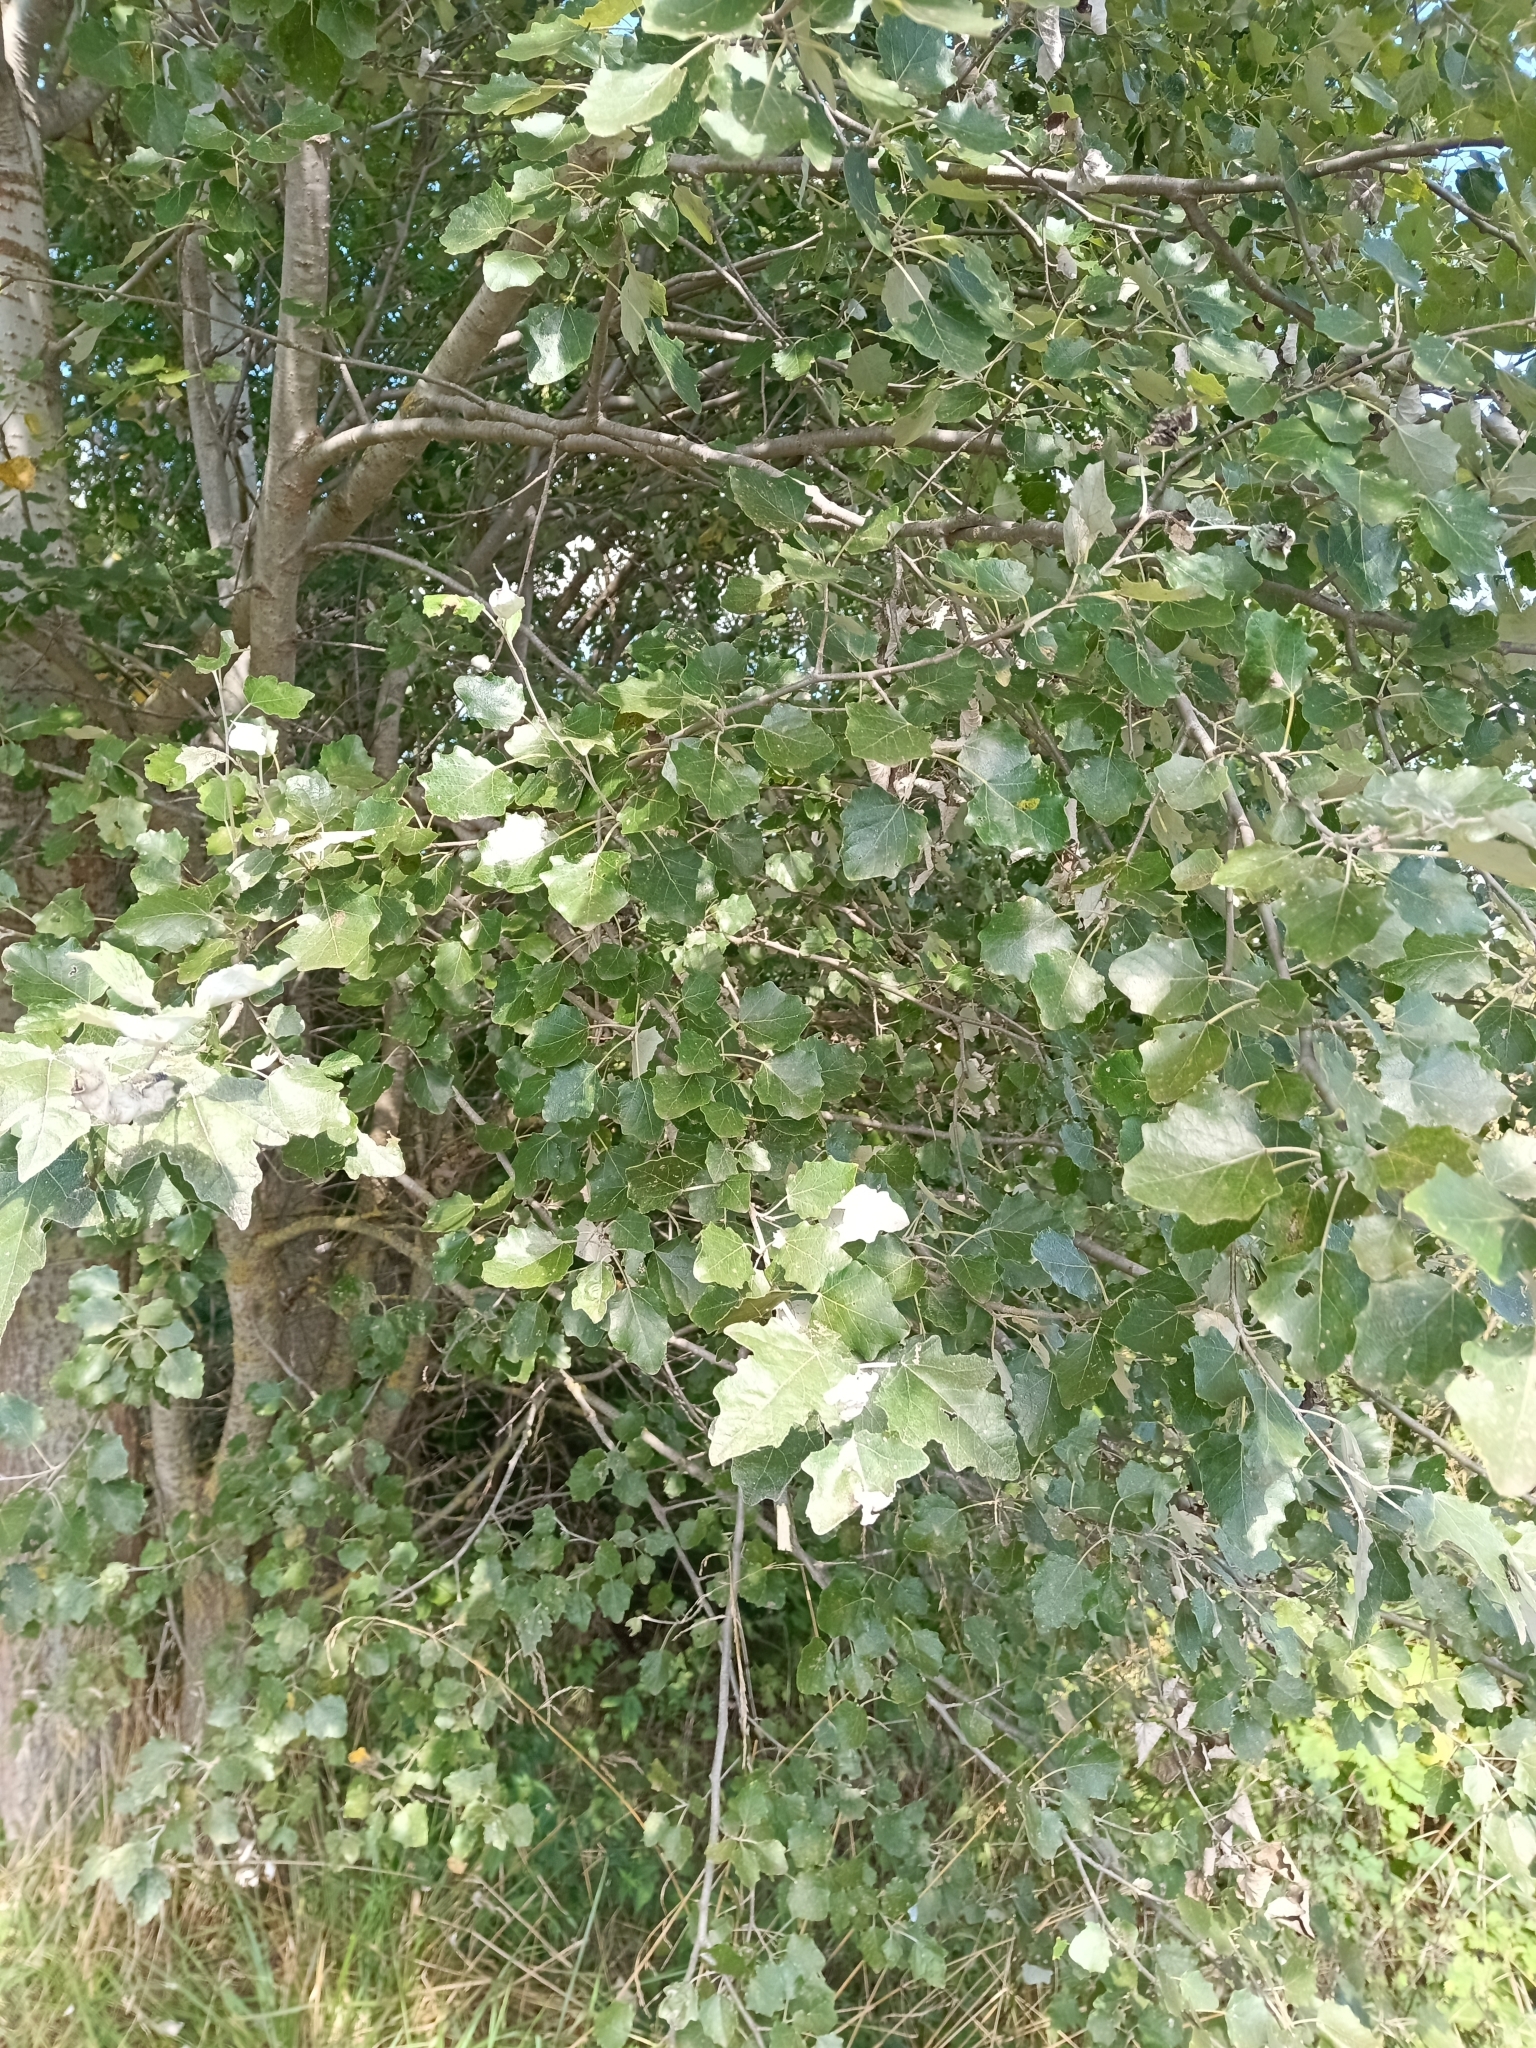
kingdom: Plantae
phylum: Tracheophyta
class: Magnoliopsida
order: Malpighiales
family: Salicaceae
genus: Populus
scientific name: Populus canescens
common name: Gray poplar
